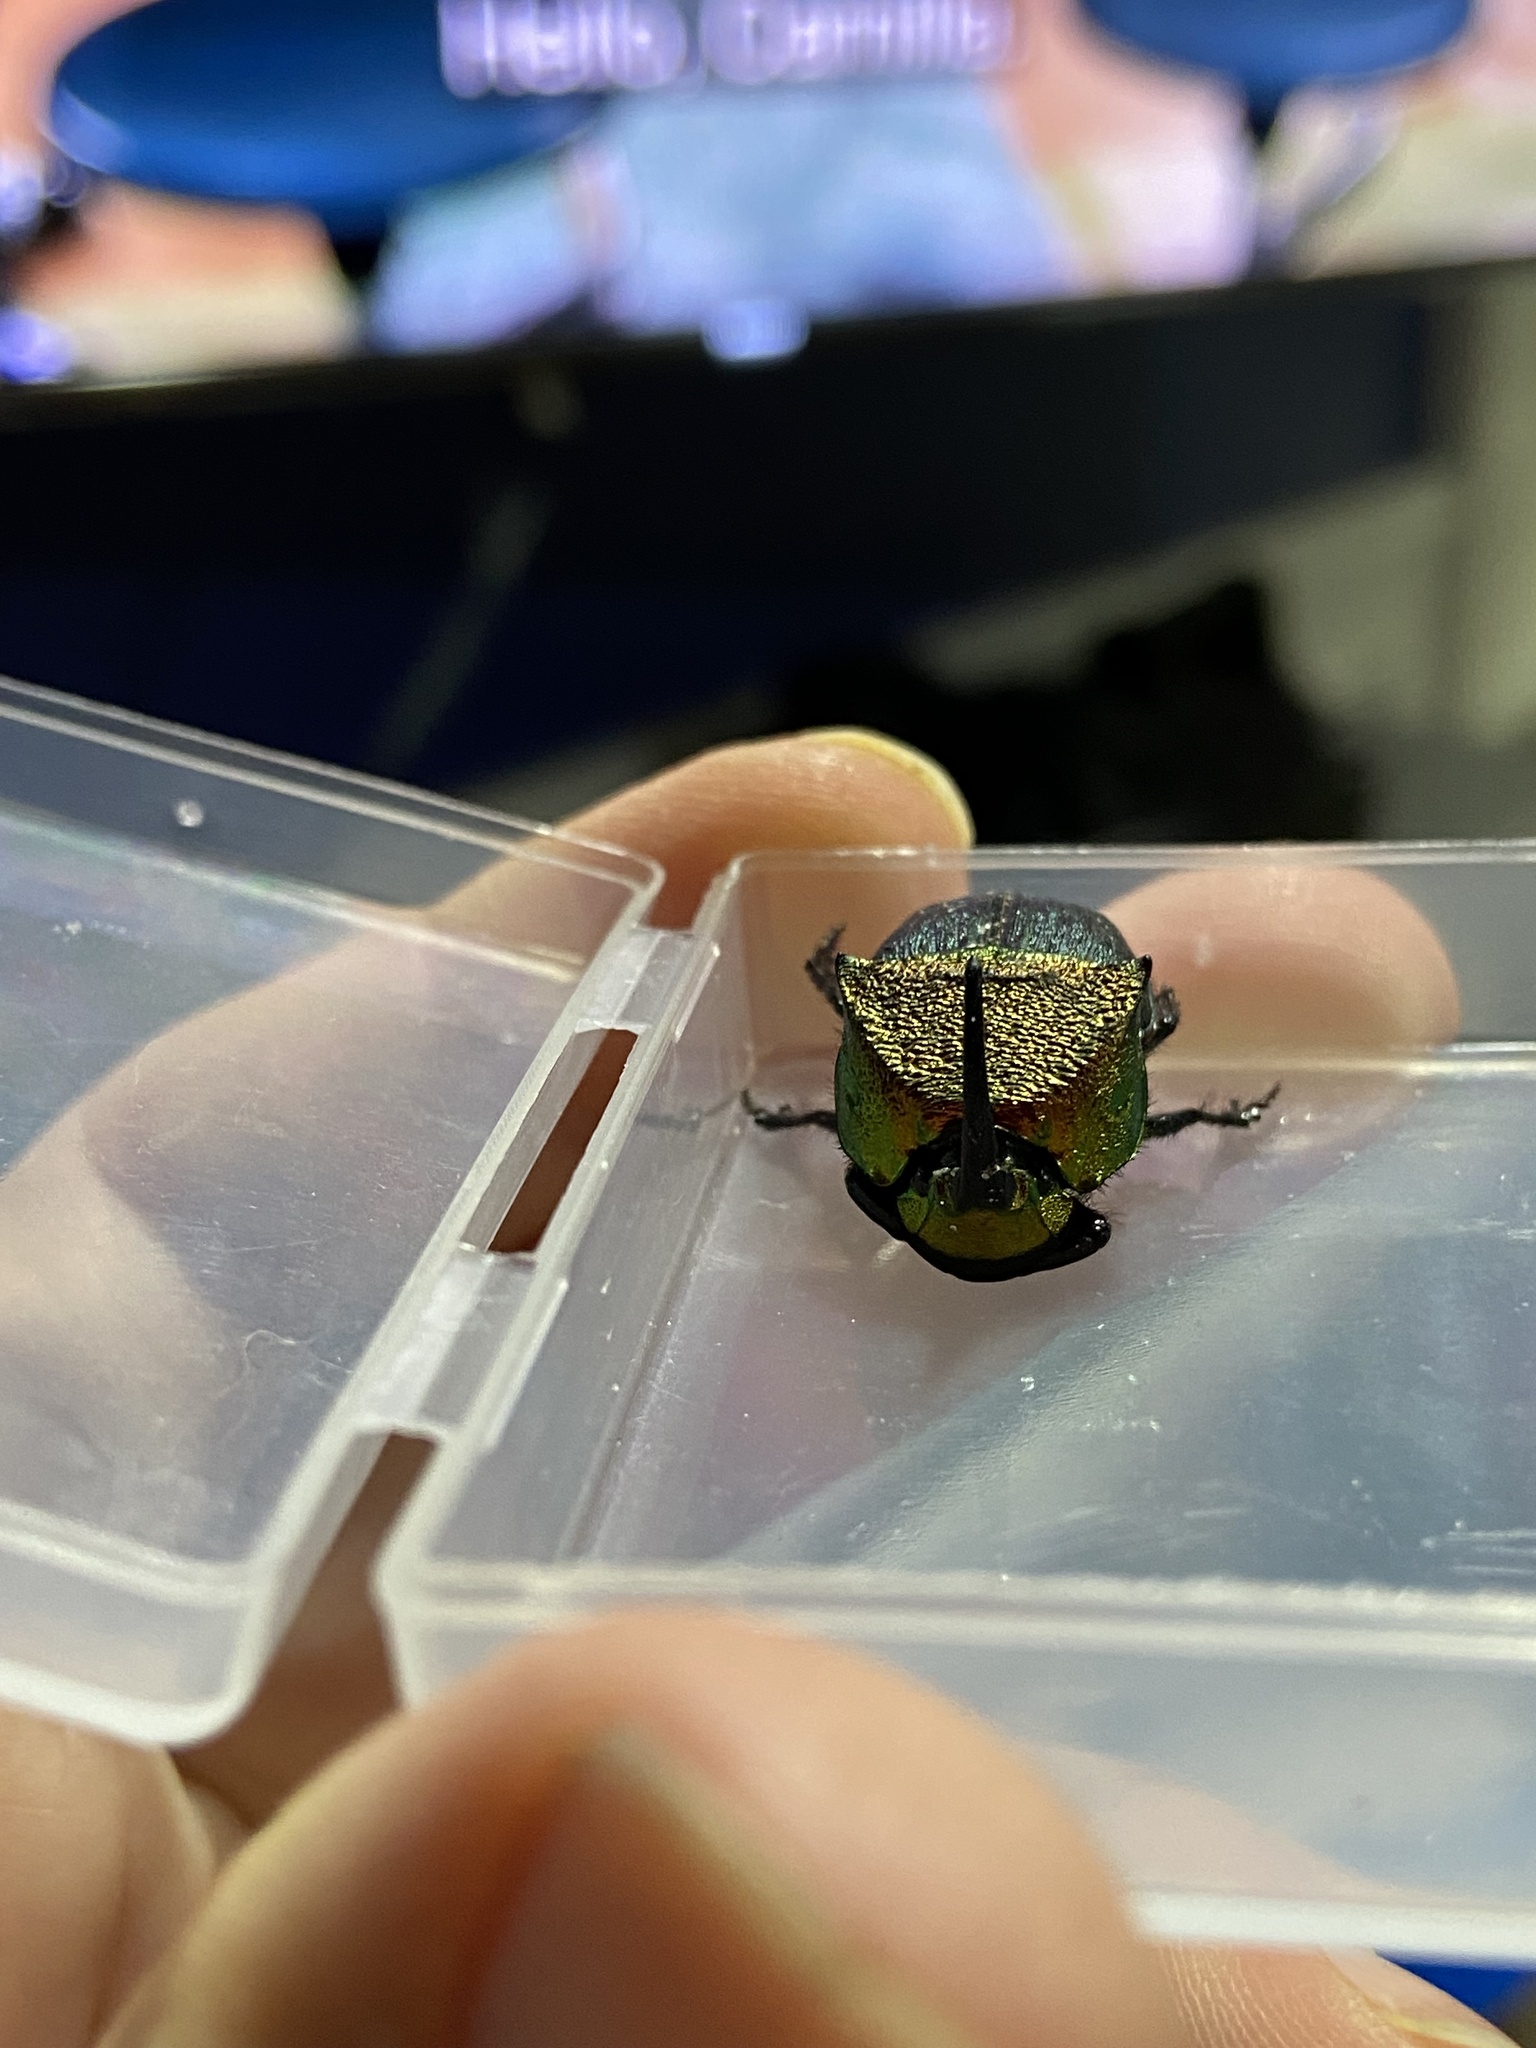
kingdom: Animalia
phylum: Arthropoda
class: Insecta
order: Coleoptera
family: Scarabaeidae
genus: Phanaeus
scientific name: Phanaeus vindex
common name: Rainbow scarab
